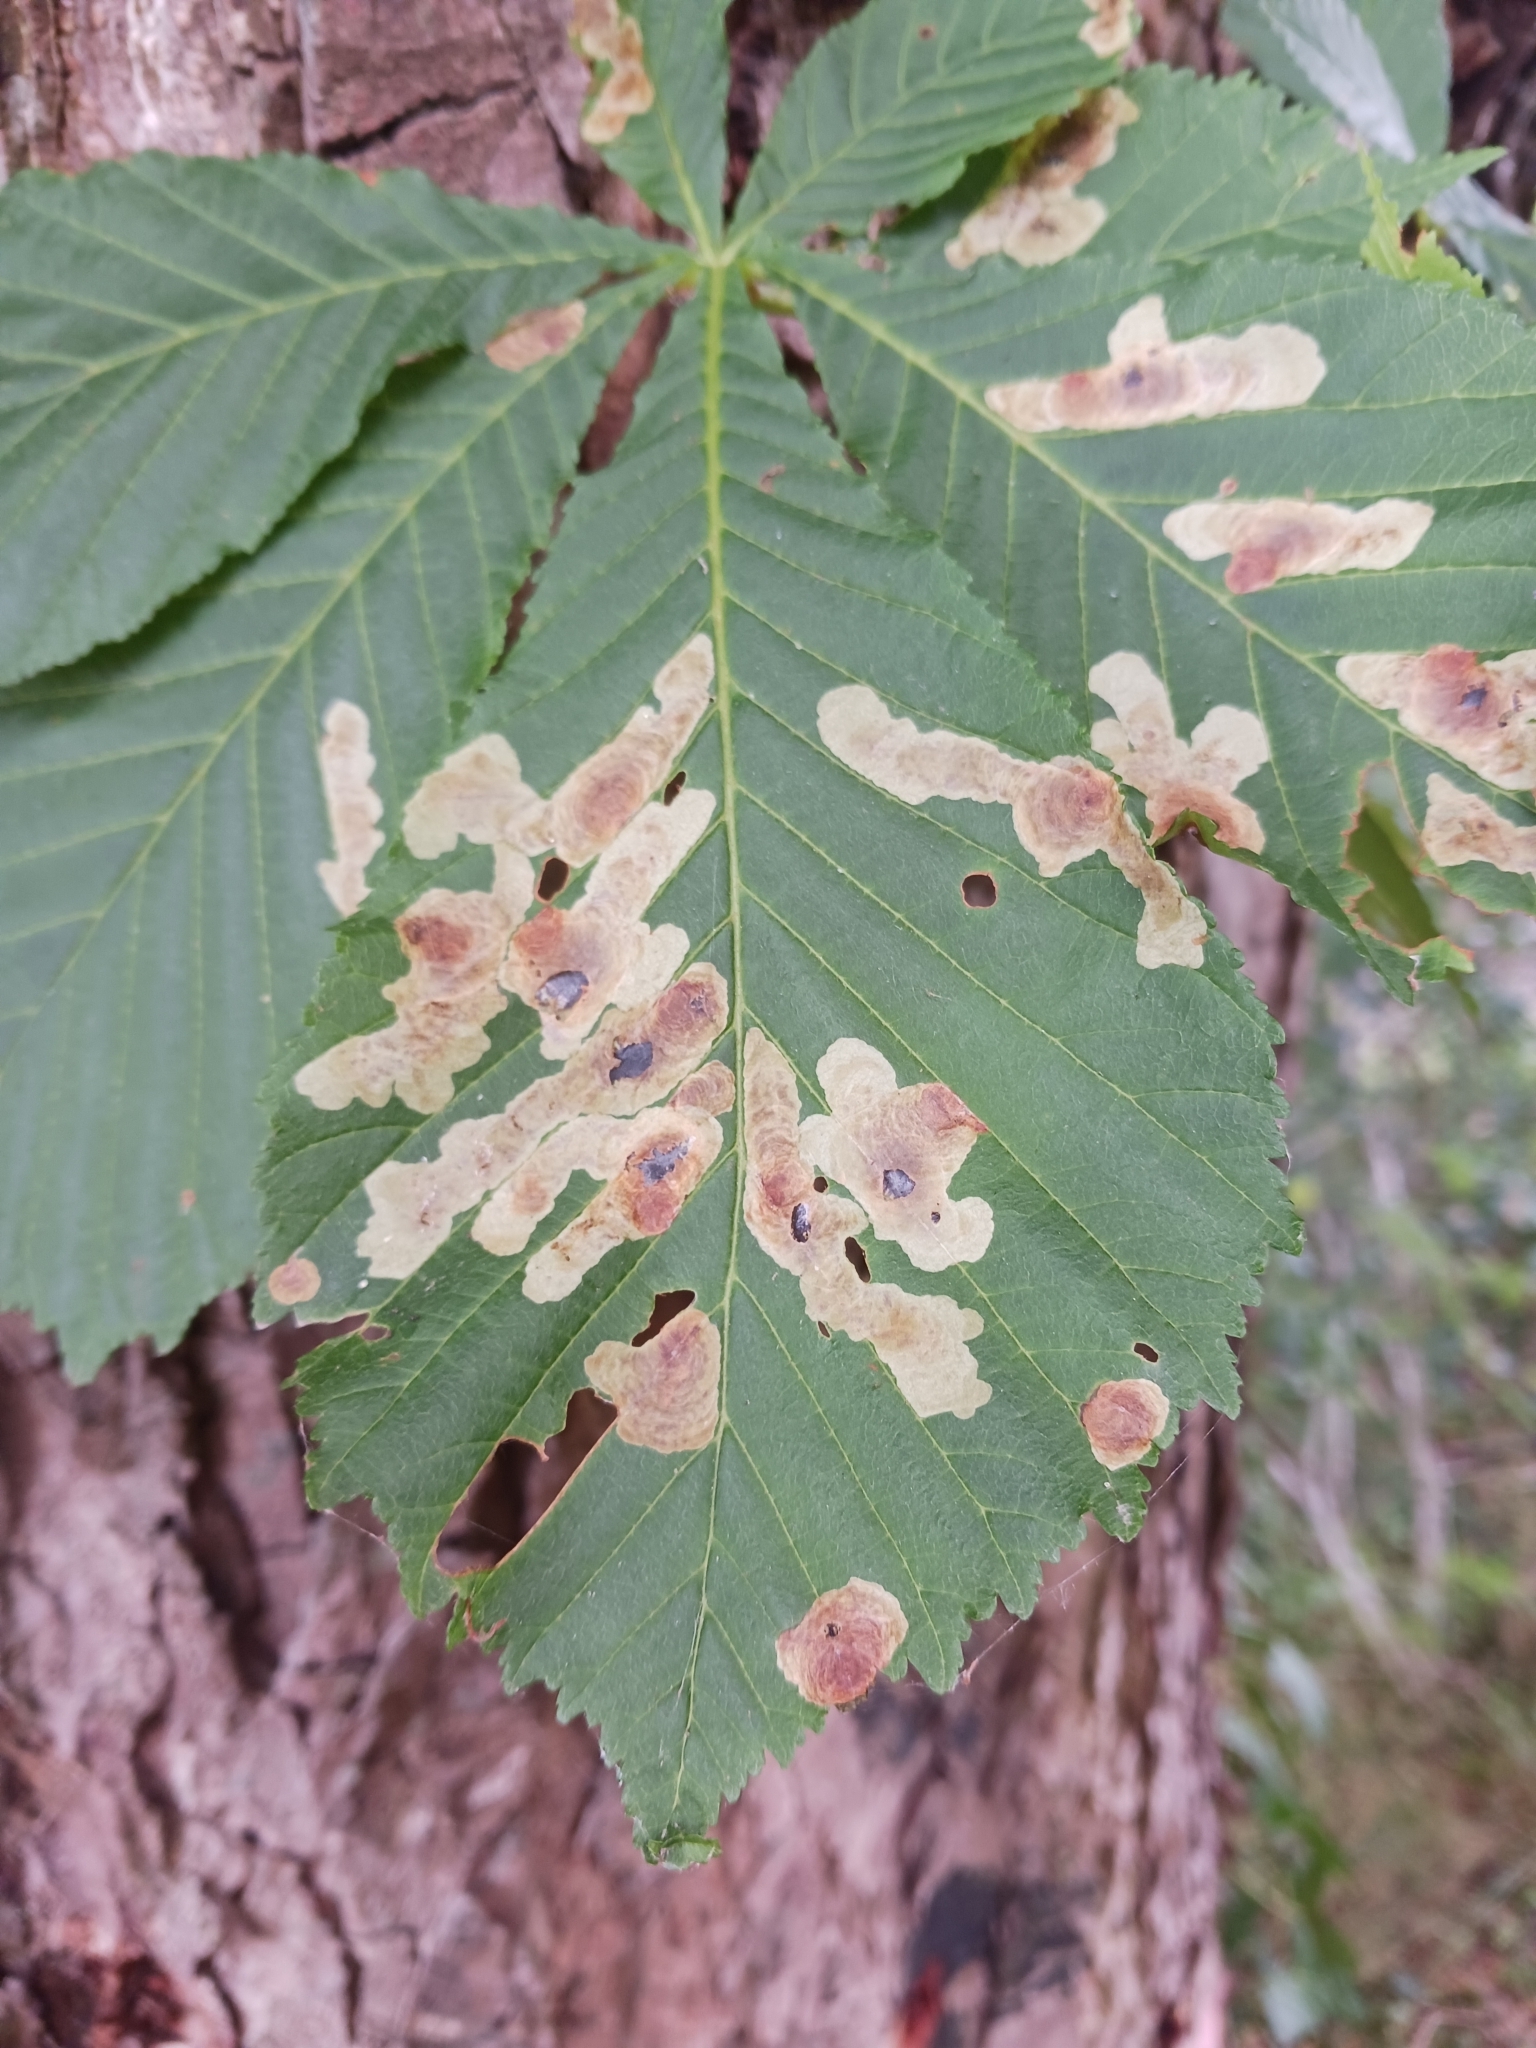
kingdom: Animalia
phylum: Arthropoda
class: Insecta
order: Lepidoptera
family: Gracillariidae
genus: Cameraria
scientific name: Cameraria ohridella
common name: Horse-chestnut leaf-miner
